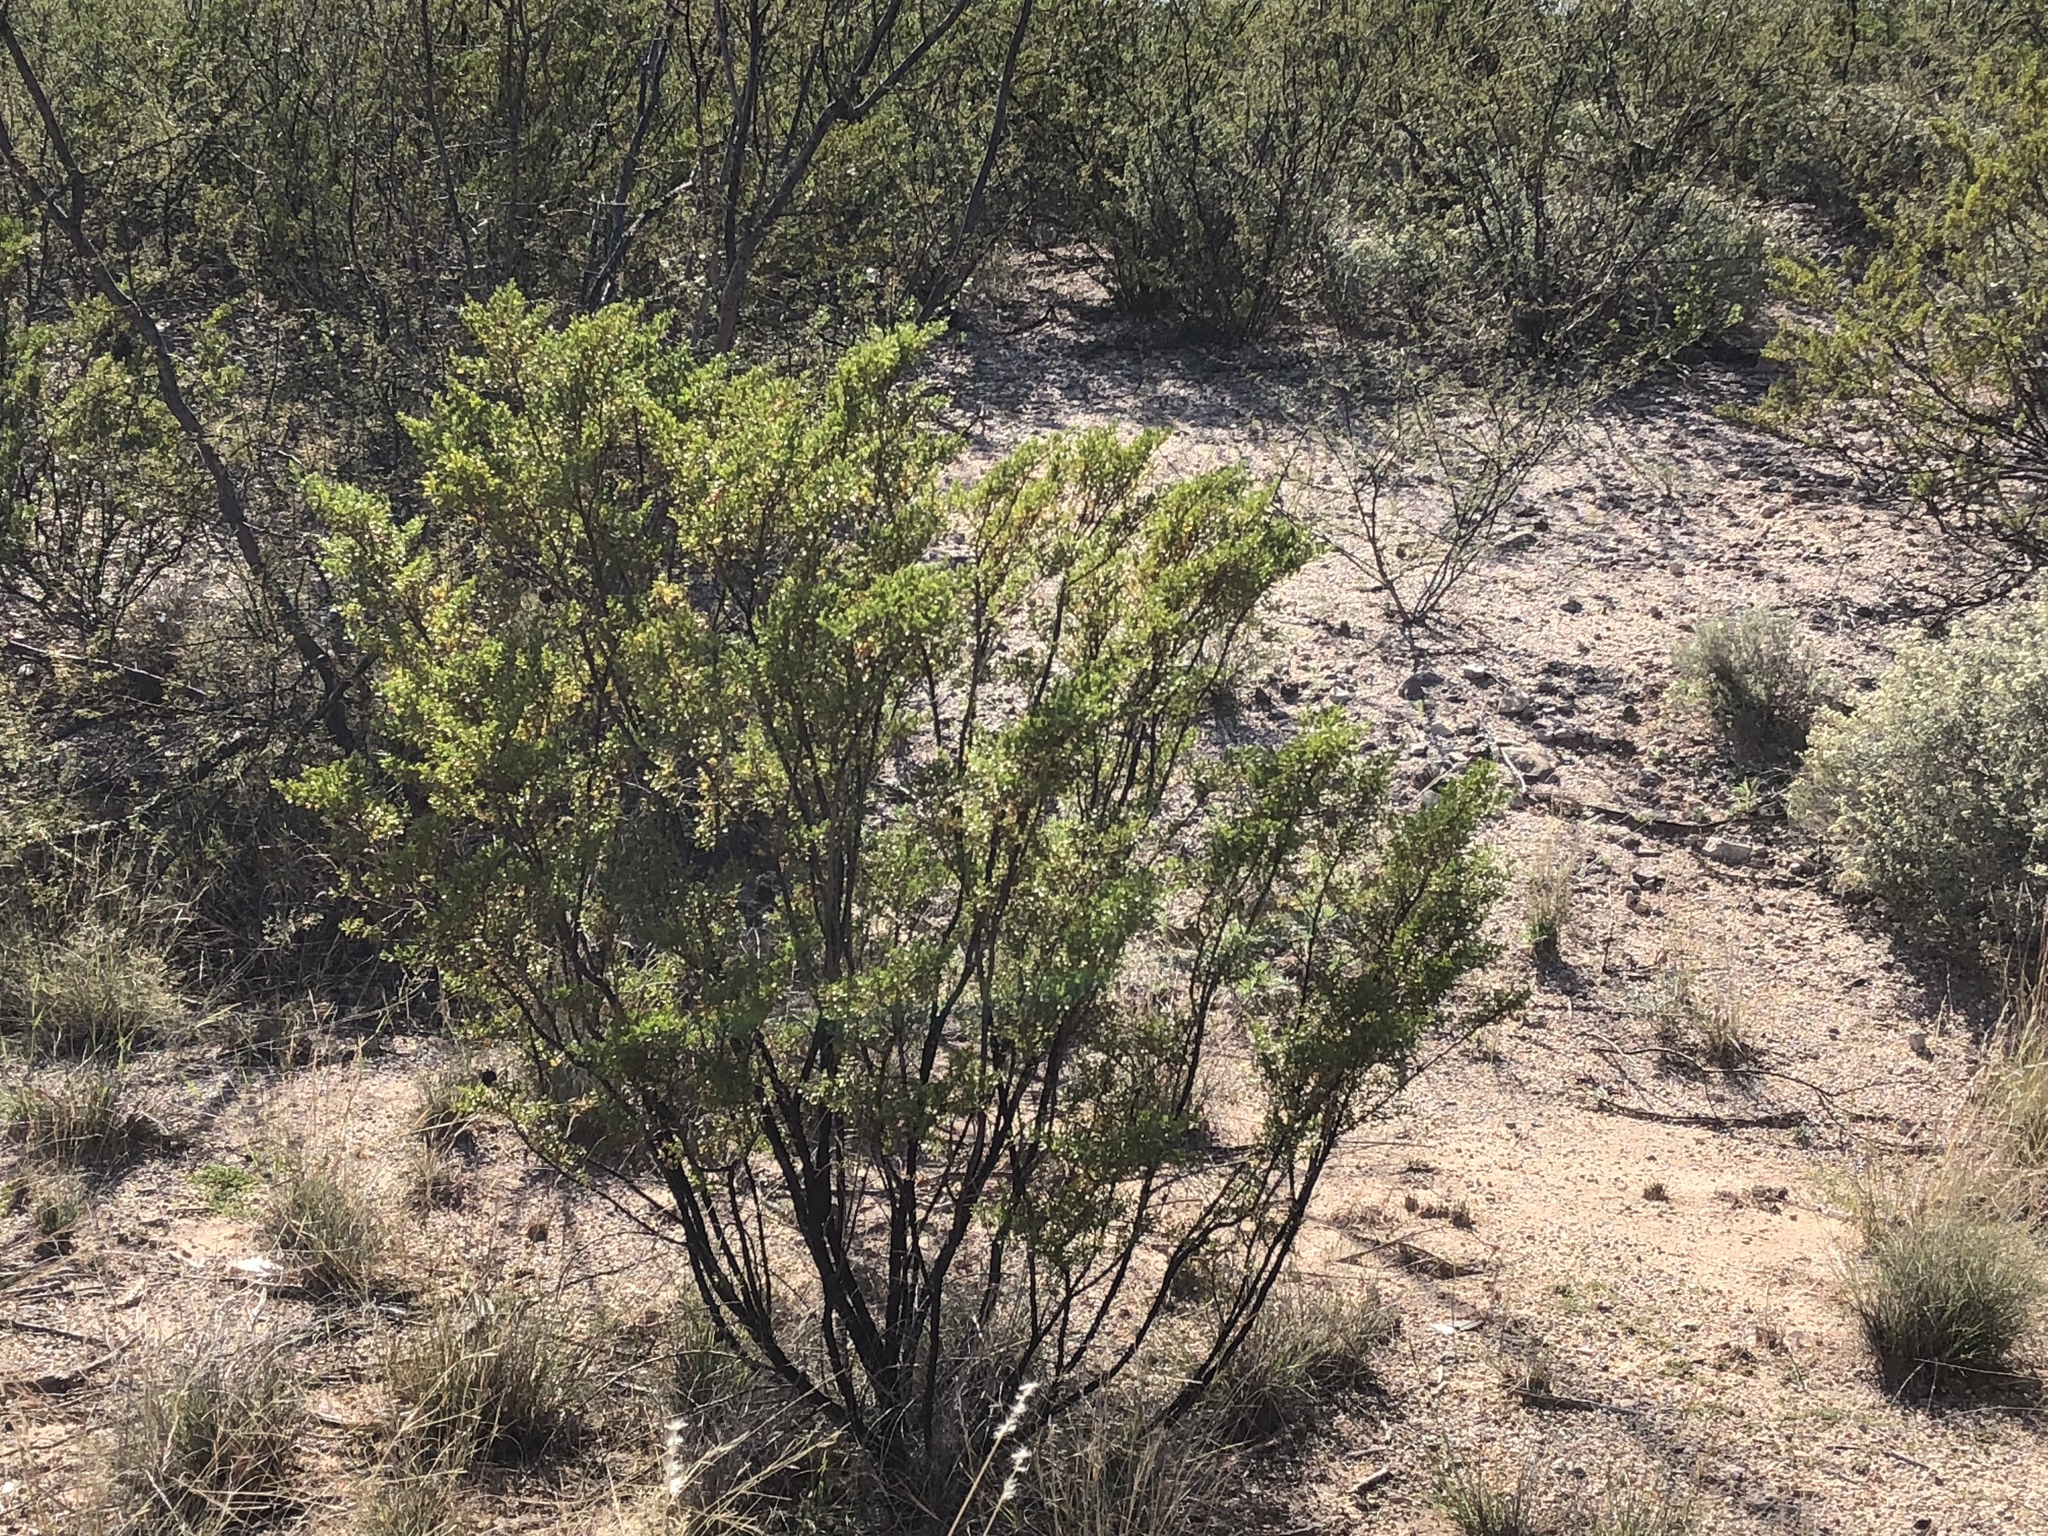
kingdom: Plantae
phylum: Tracheophyta
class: Magnoliopsida
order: Zygophyllales
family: Zygophyllaceae
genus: Larrea
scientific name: Larrea tridentata
